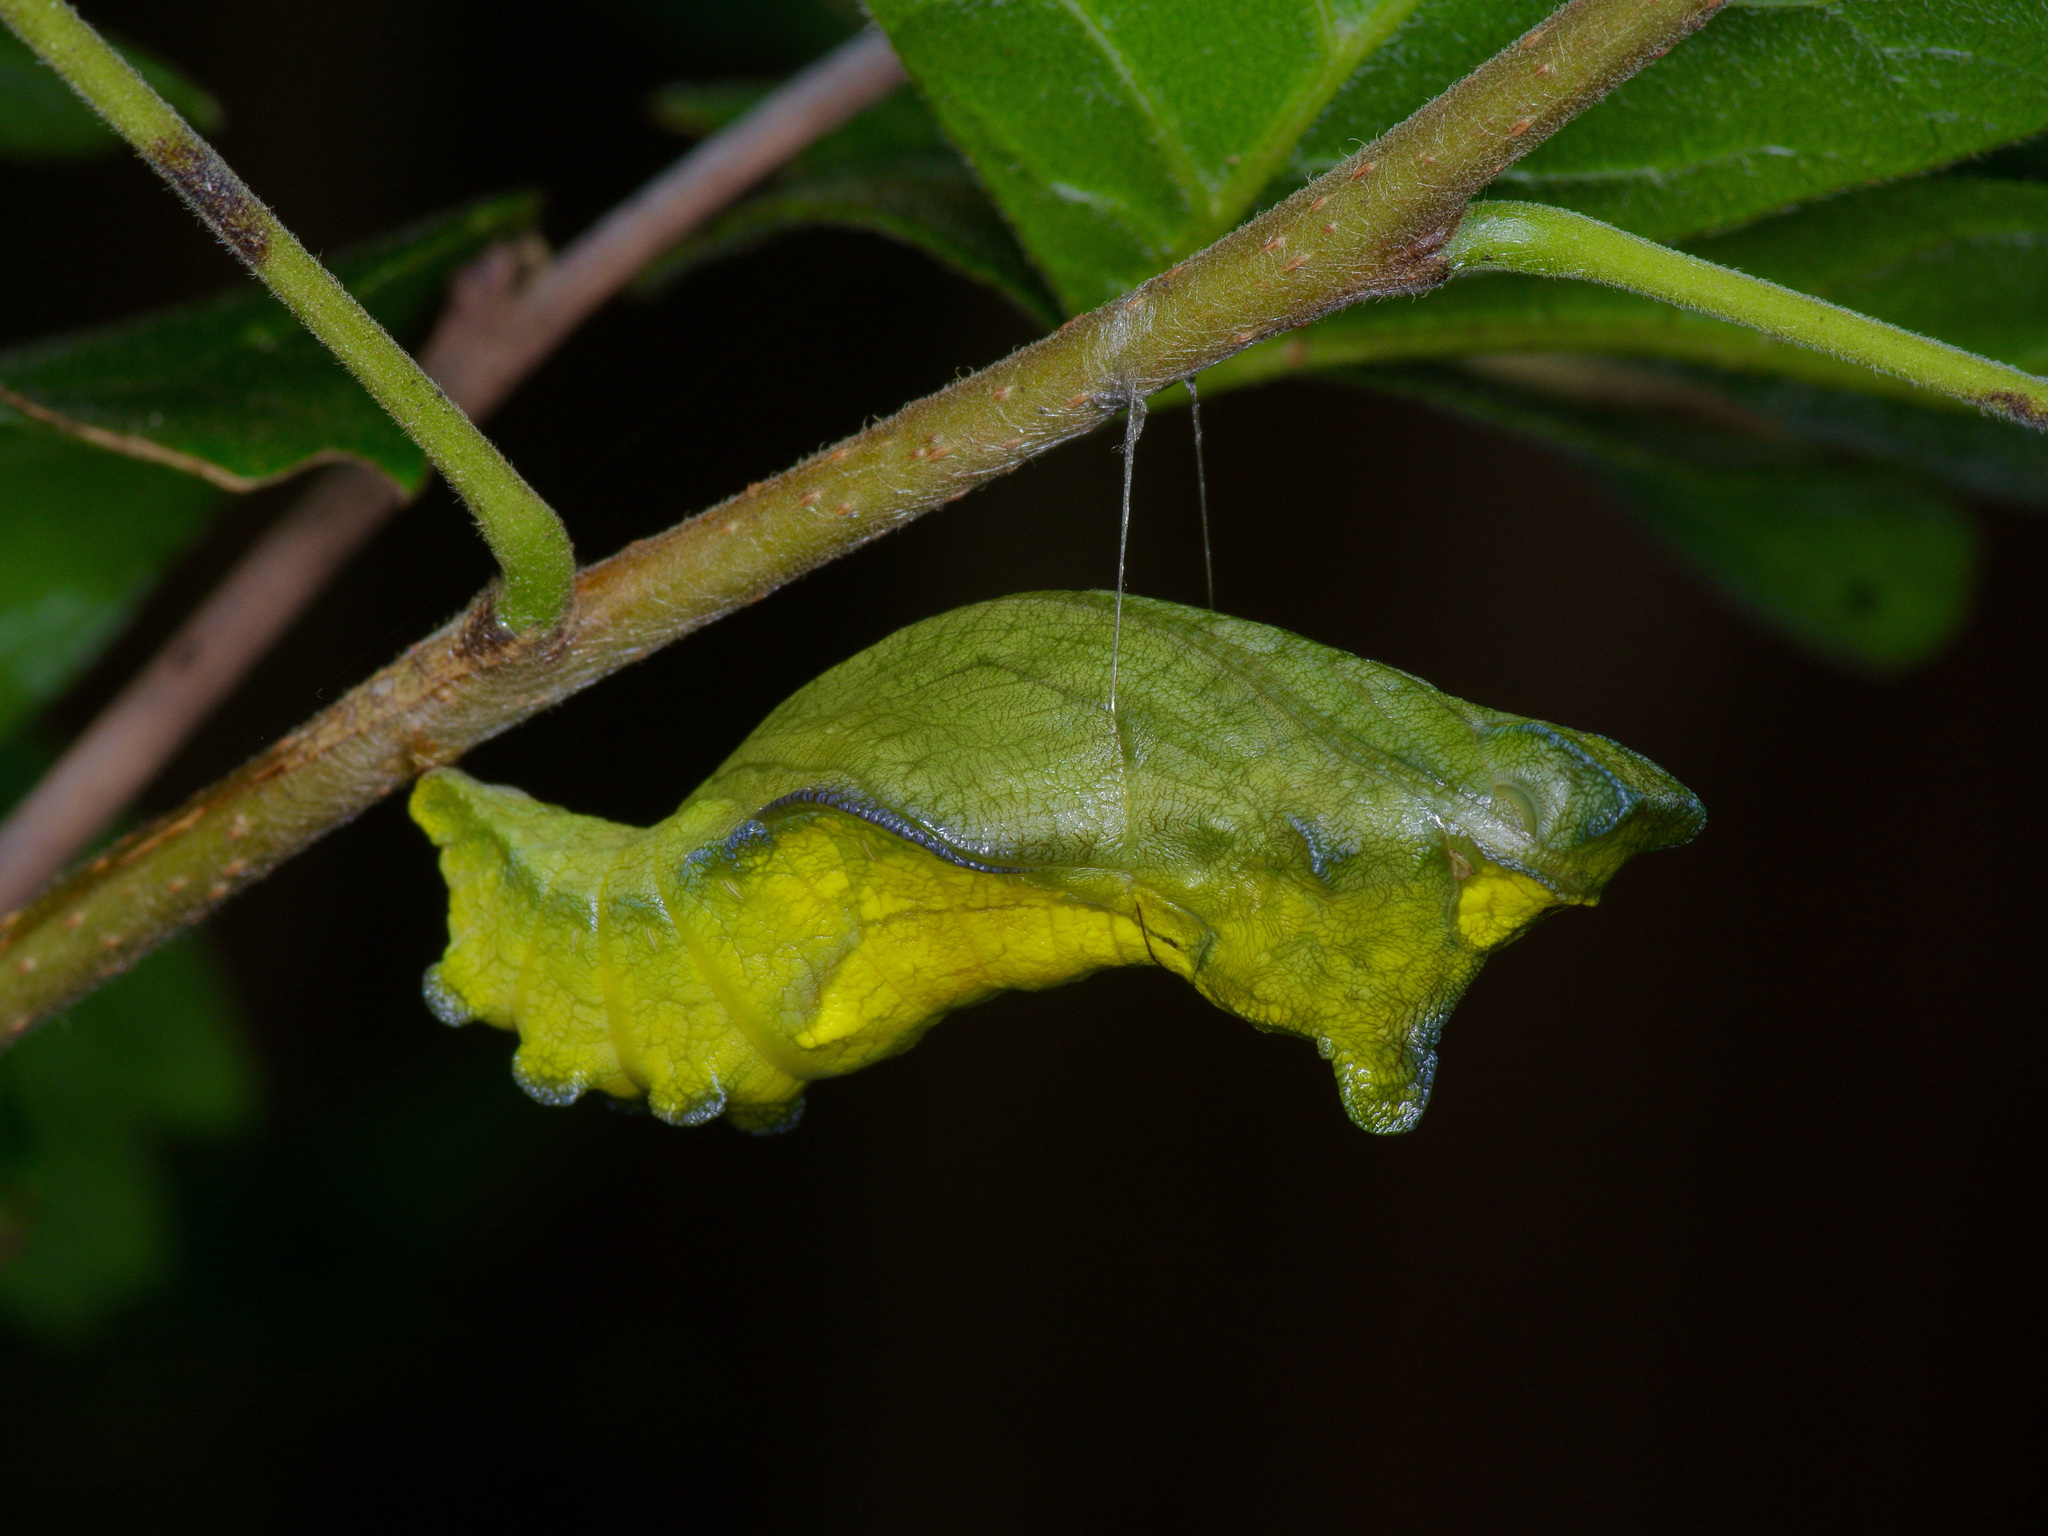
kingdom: Animalia
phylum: Arthropoda
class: Insecta
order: Lepidoptera
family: Papilionidae
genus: Battus
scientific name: Battus philenor
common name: Pipevine swallowtail
